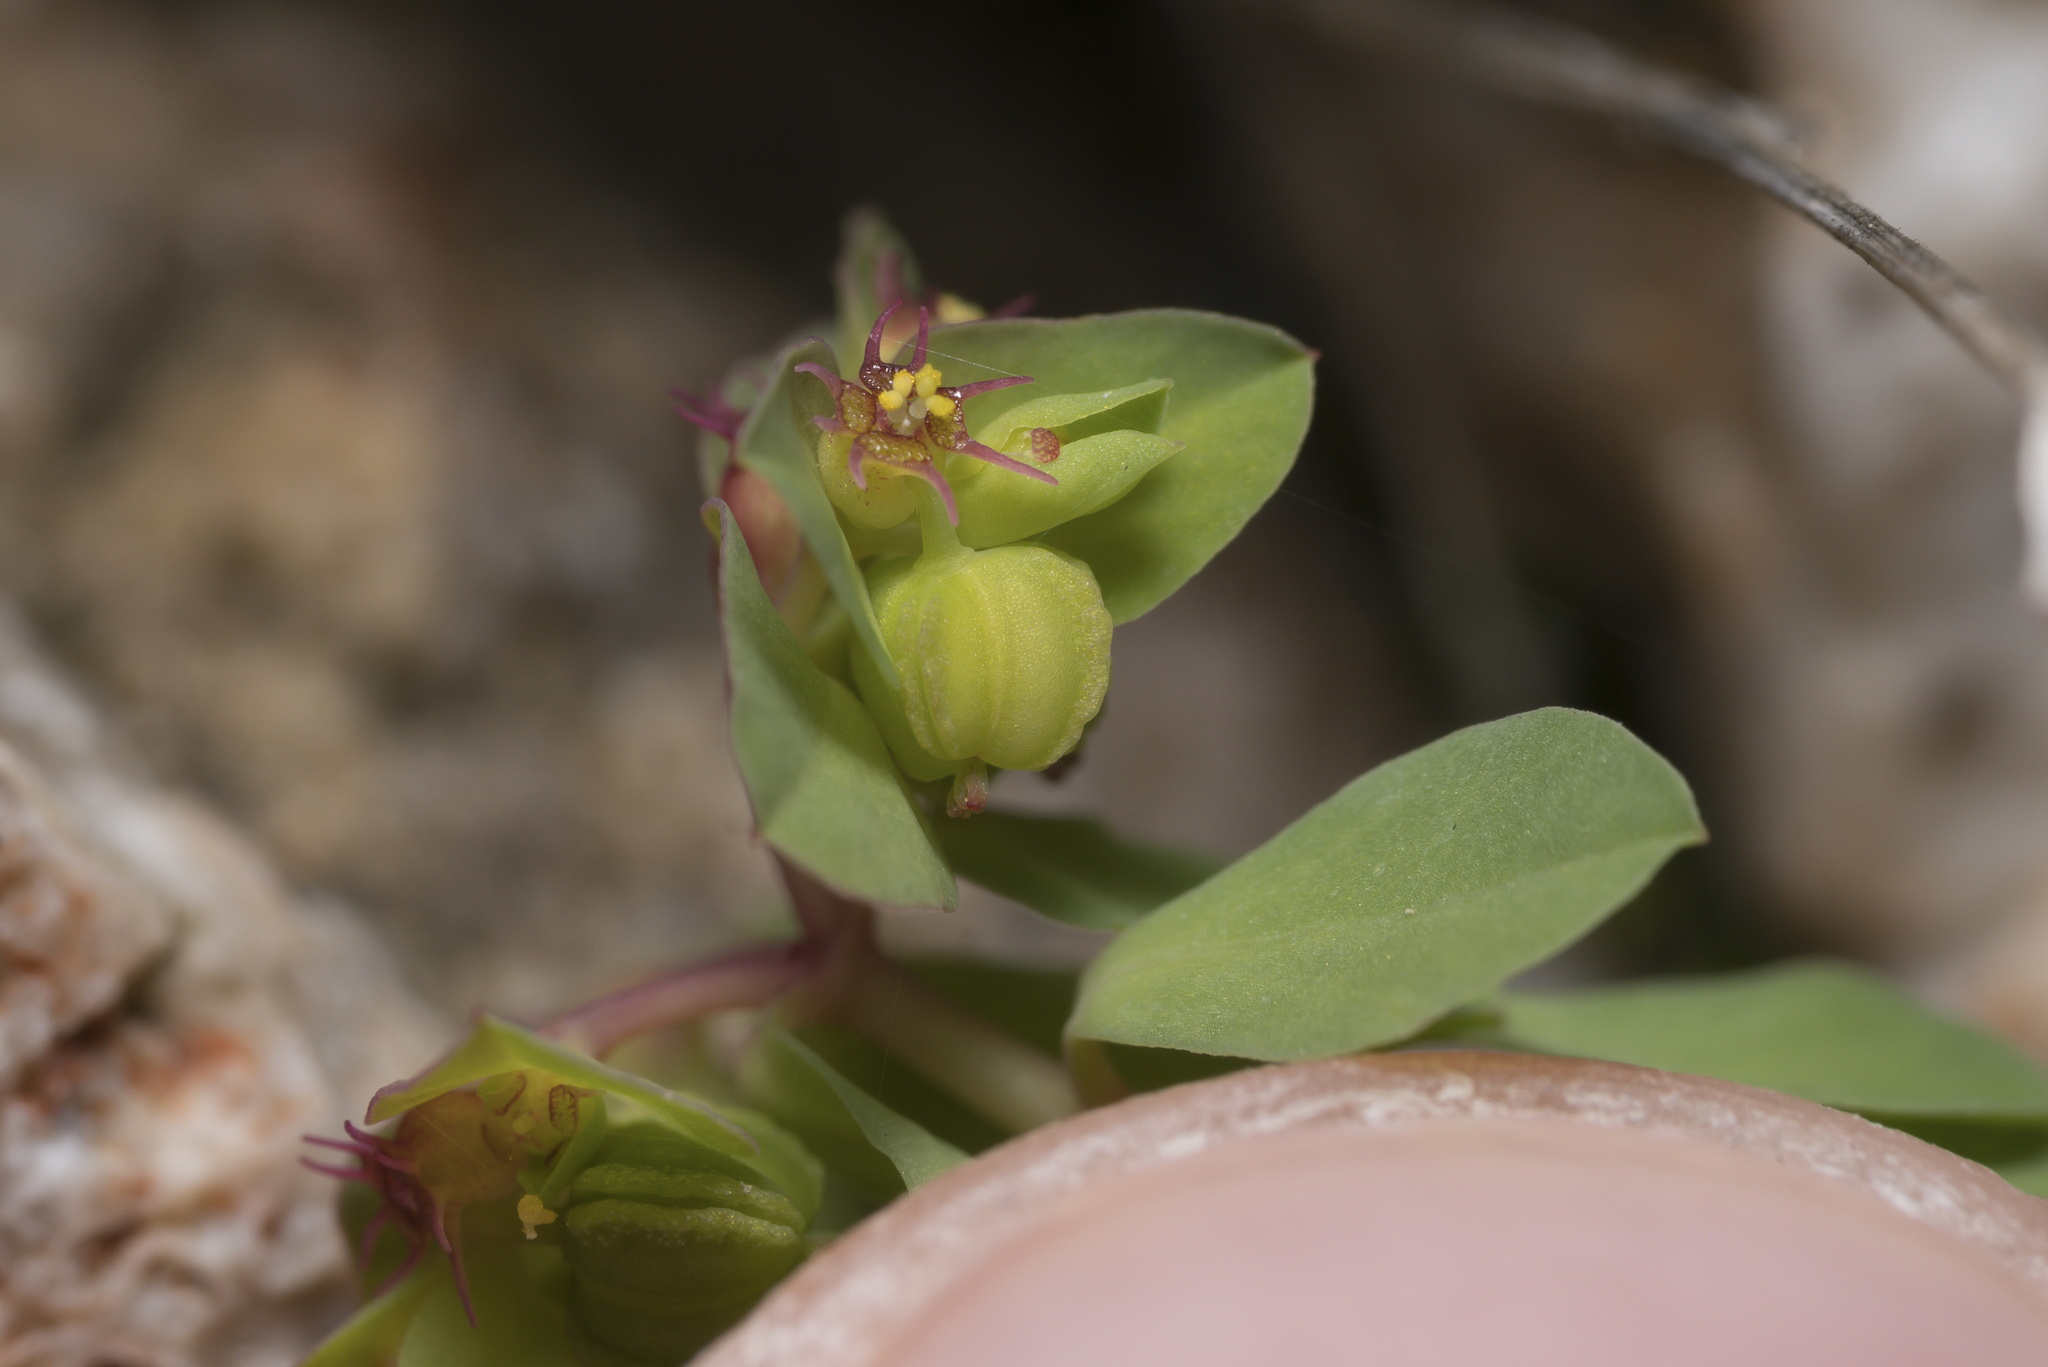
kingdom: Plantae
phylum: Tracheophyta
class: Magnoliopsida
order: Malpighiales
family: Euphorbiaceae
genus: Euphorbia
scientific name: Euphorbia peplus
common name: Petty spurge
